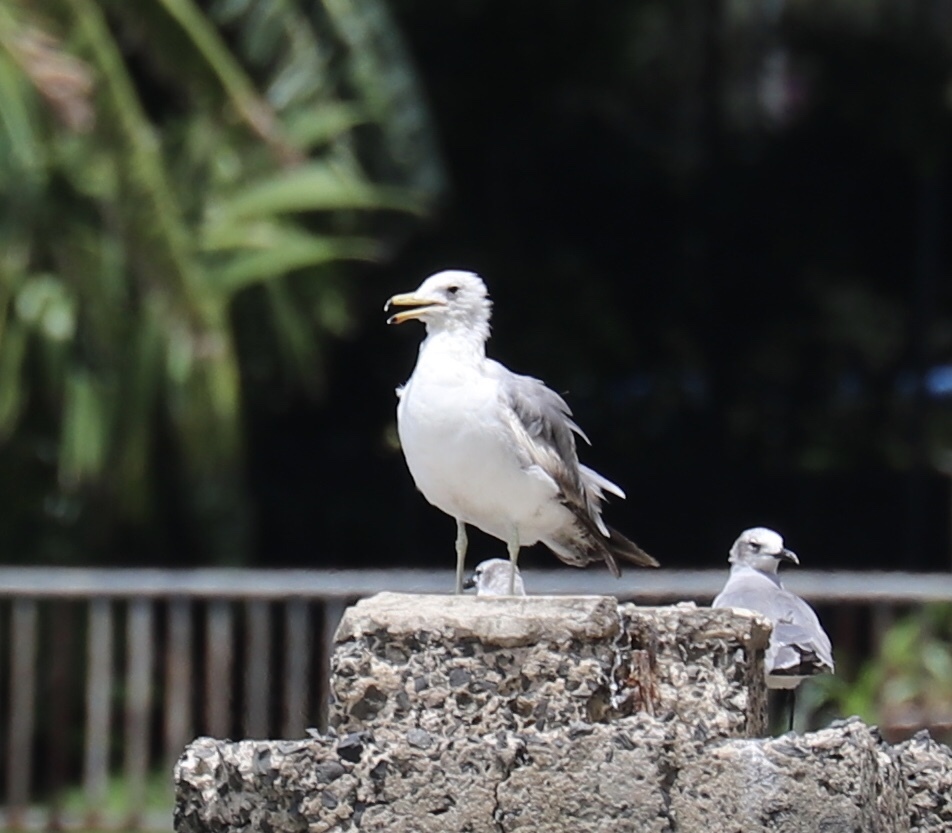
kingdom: Animalia
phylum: Chordata
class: Aves
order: Charadriiformes
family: Laridae
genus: Larus
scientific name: Larus californicus
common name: California gull
